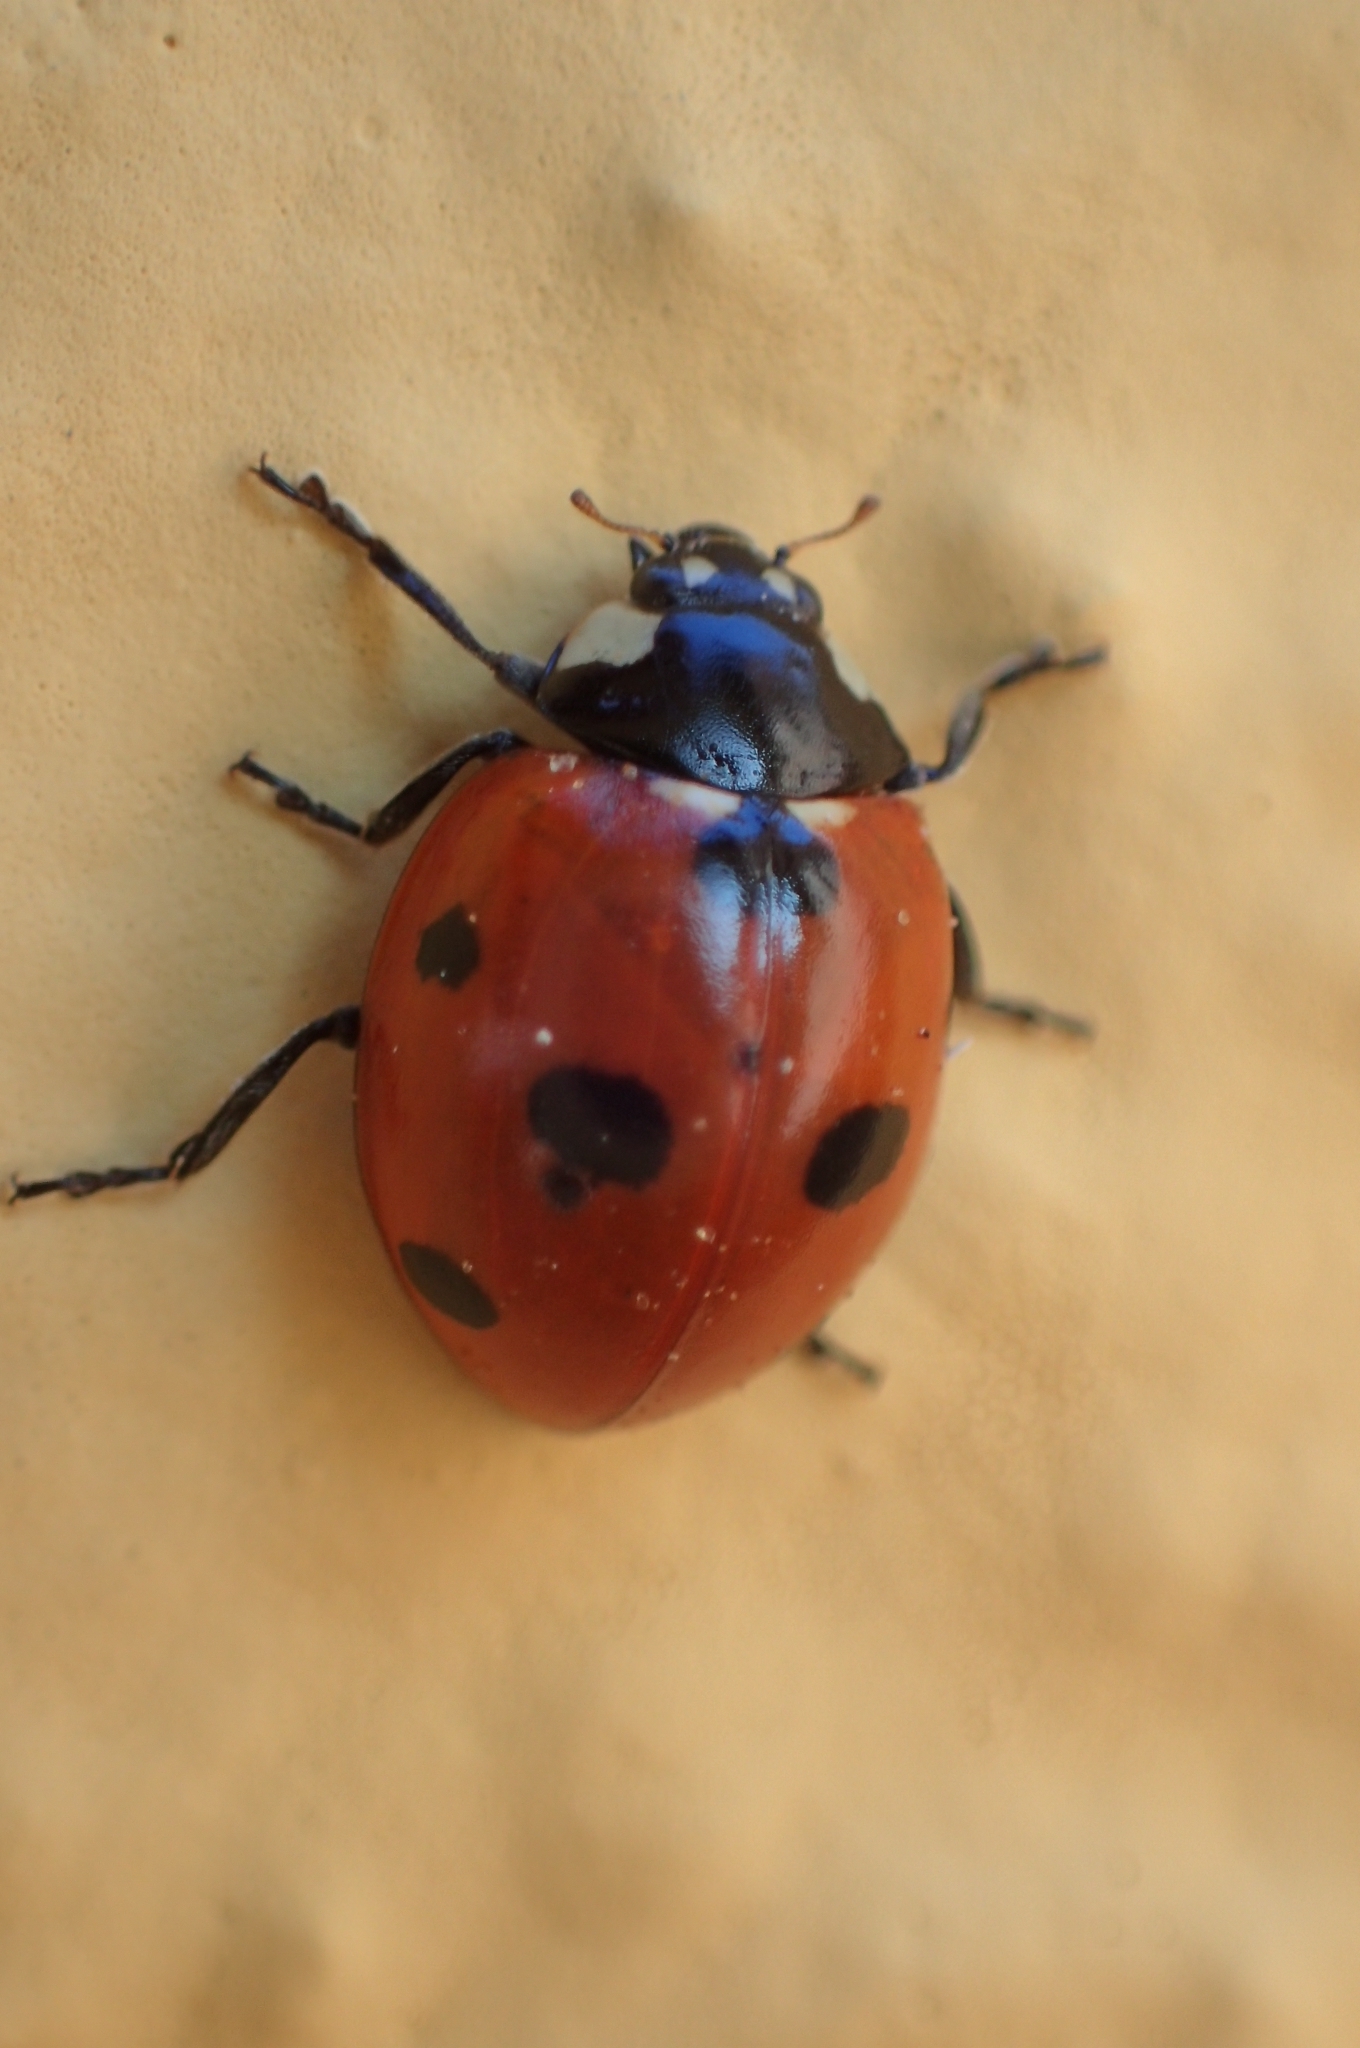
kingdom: Animalia
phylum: Arthropoda
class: Insecta
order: Coleoptera
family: Coccinellidae
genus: Coccinella
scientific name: Coccinella septempunctata
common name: Sevenspotted lady beetle
